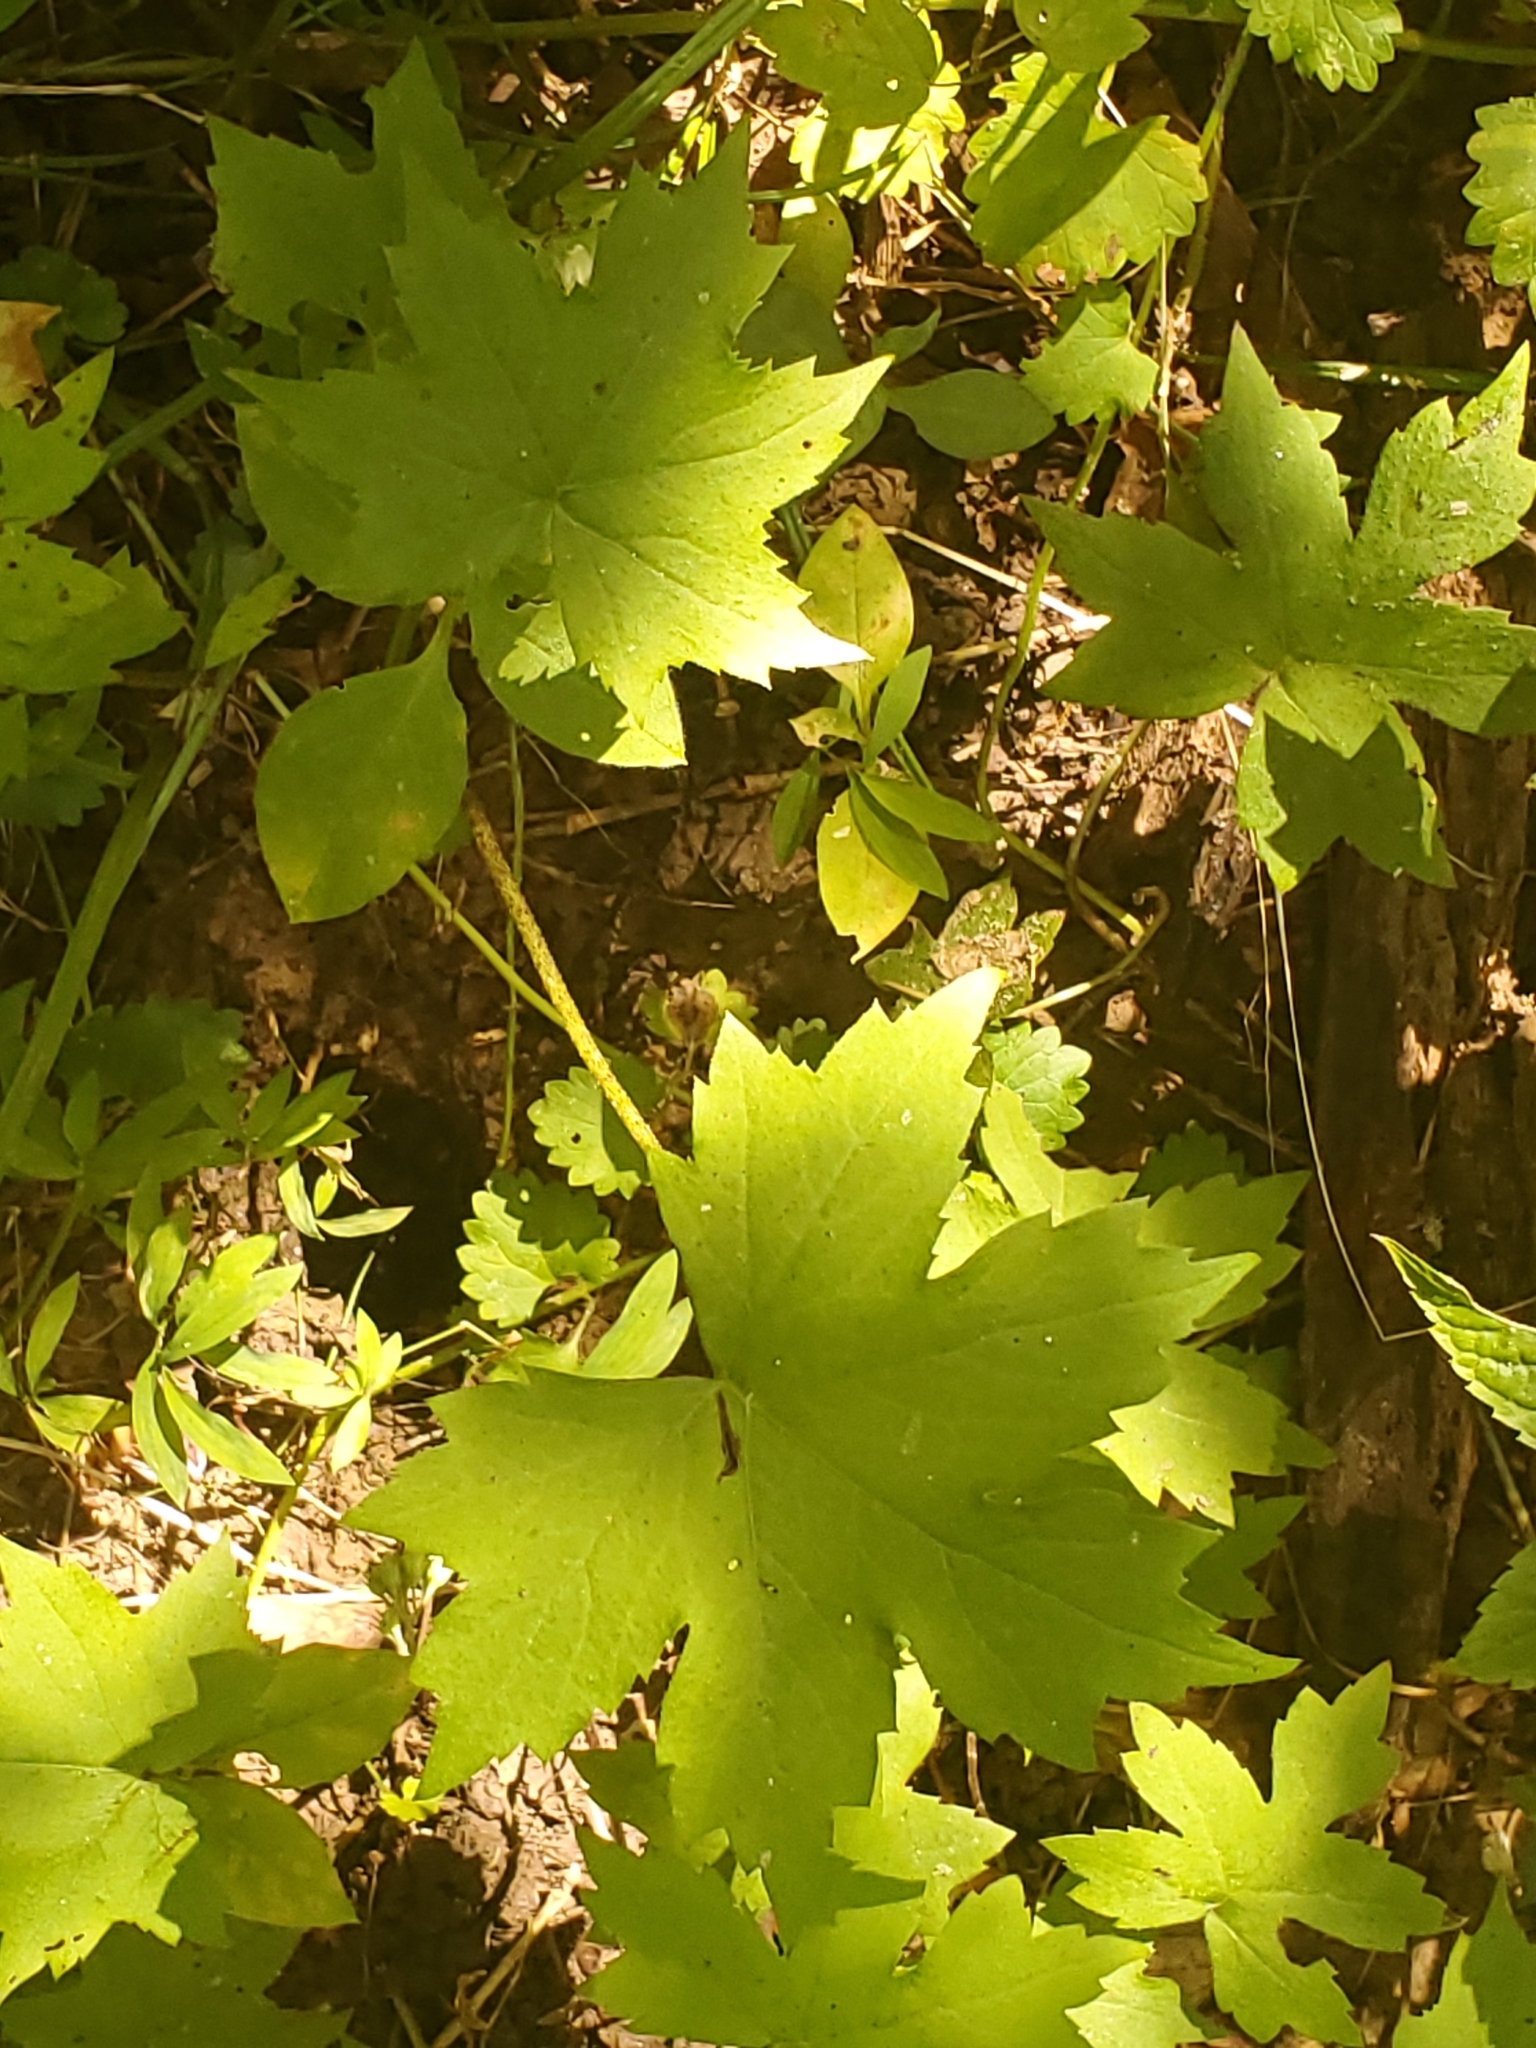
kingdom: Plantae
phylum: Tracheophyta
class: Magnoliopsida
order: Boraginales
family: Hydrophyllaceae
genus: Hydrophyllum
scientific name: Hydrophyllum canadense
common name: Canada waterleaf
